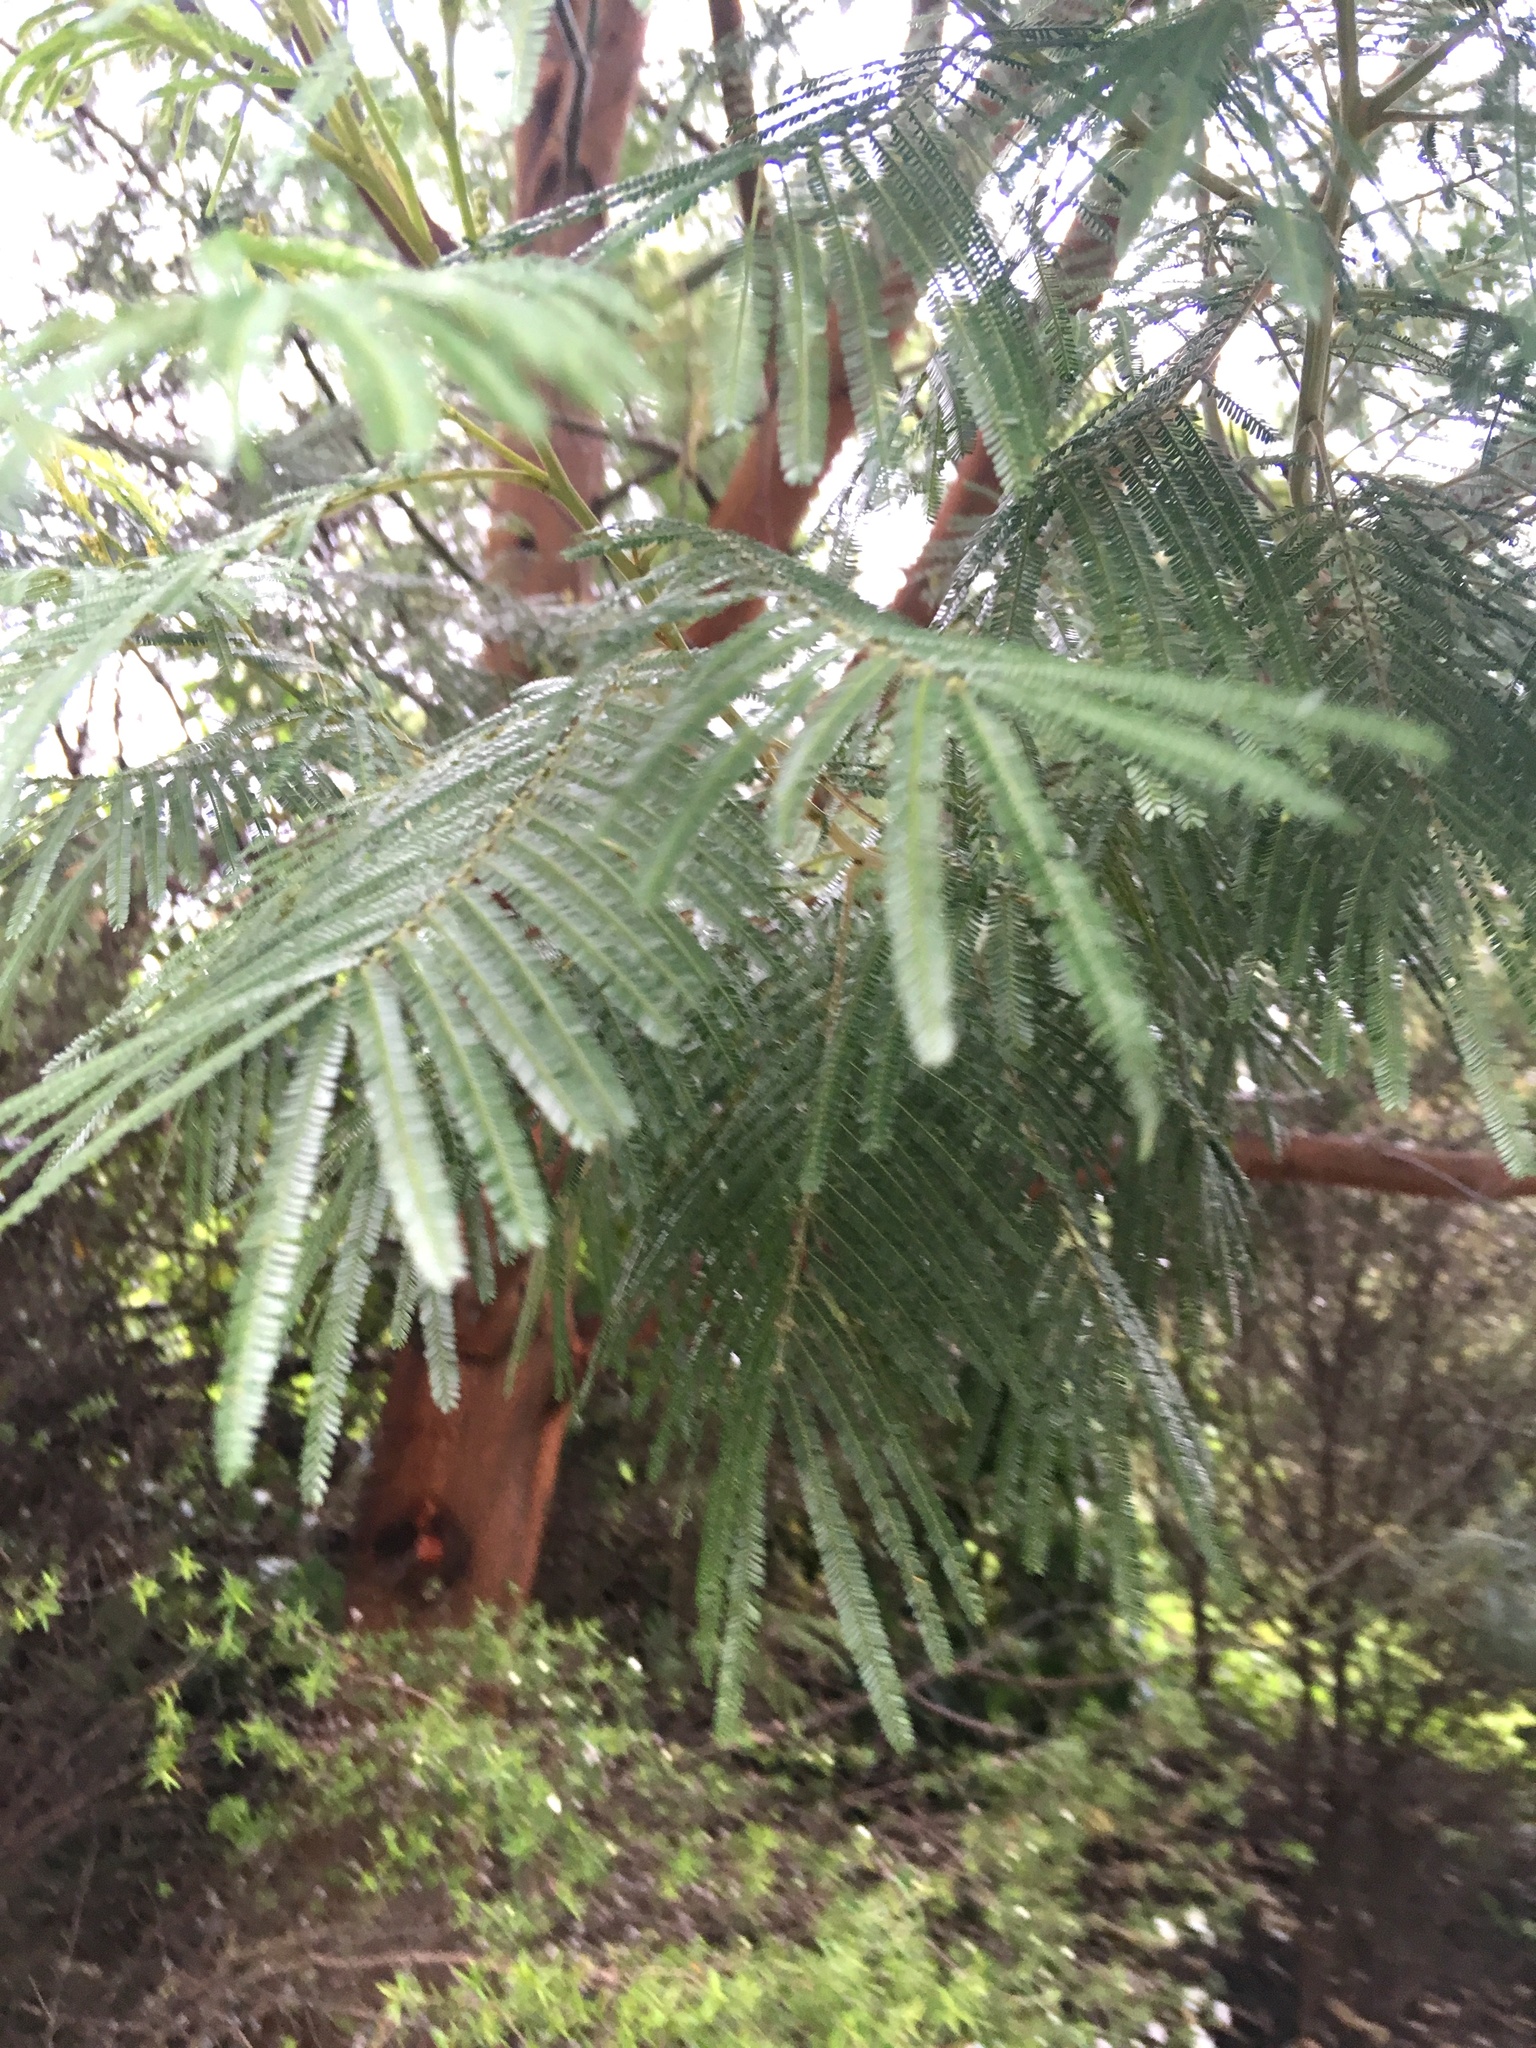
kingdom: Plantae
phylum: Tracheophyta
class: Magnoliopsida
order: Fabales
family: Fabaceae
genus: Acacia
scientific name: Acacia mearnsii
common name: Black wattle
